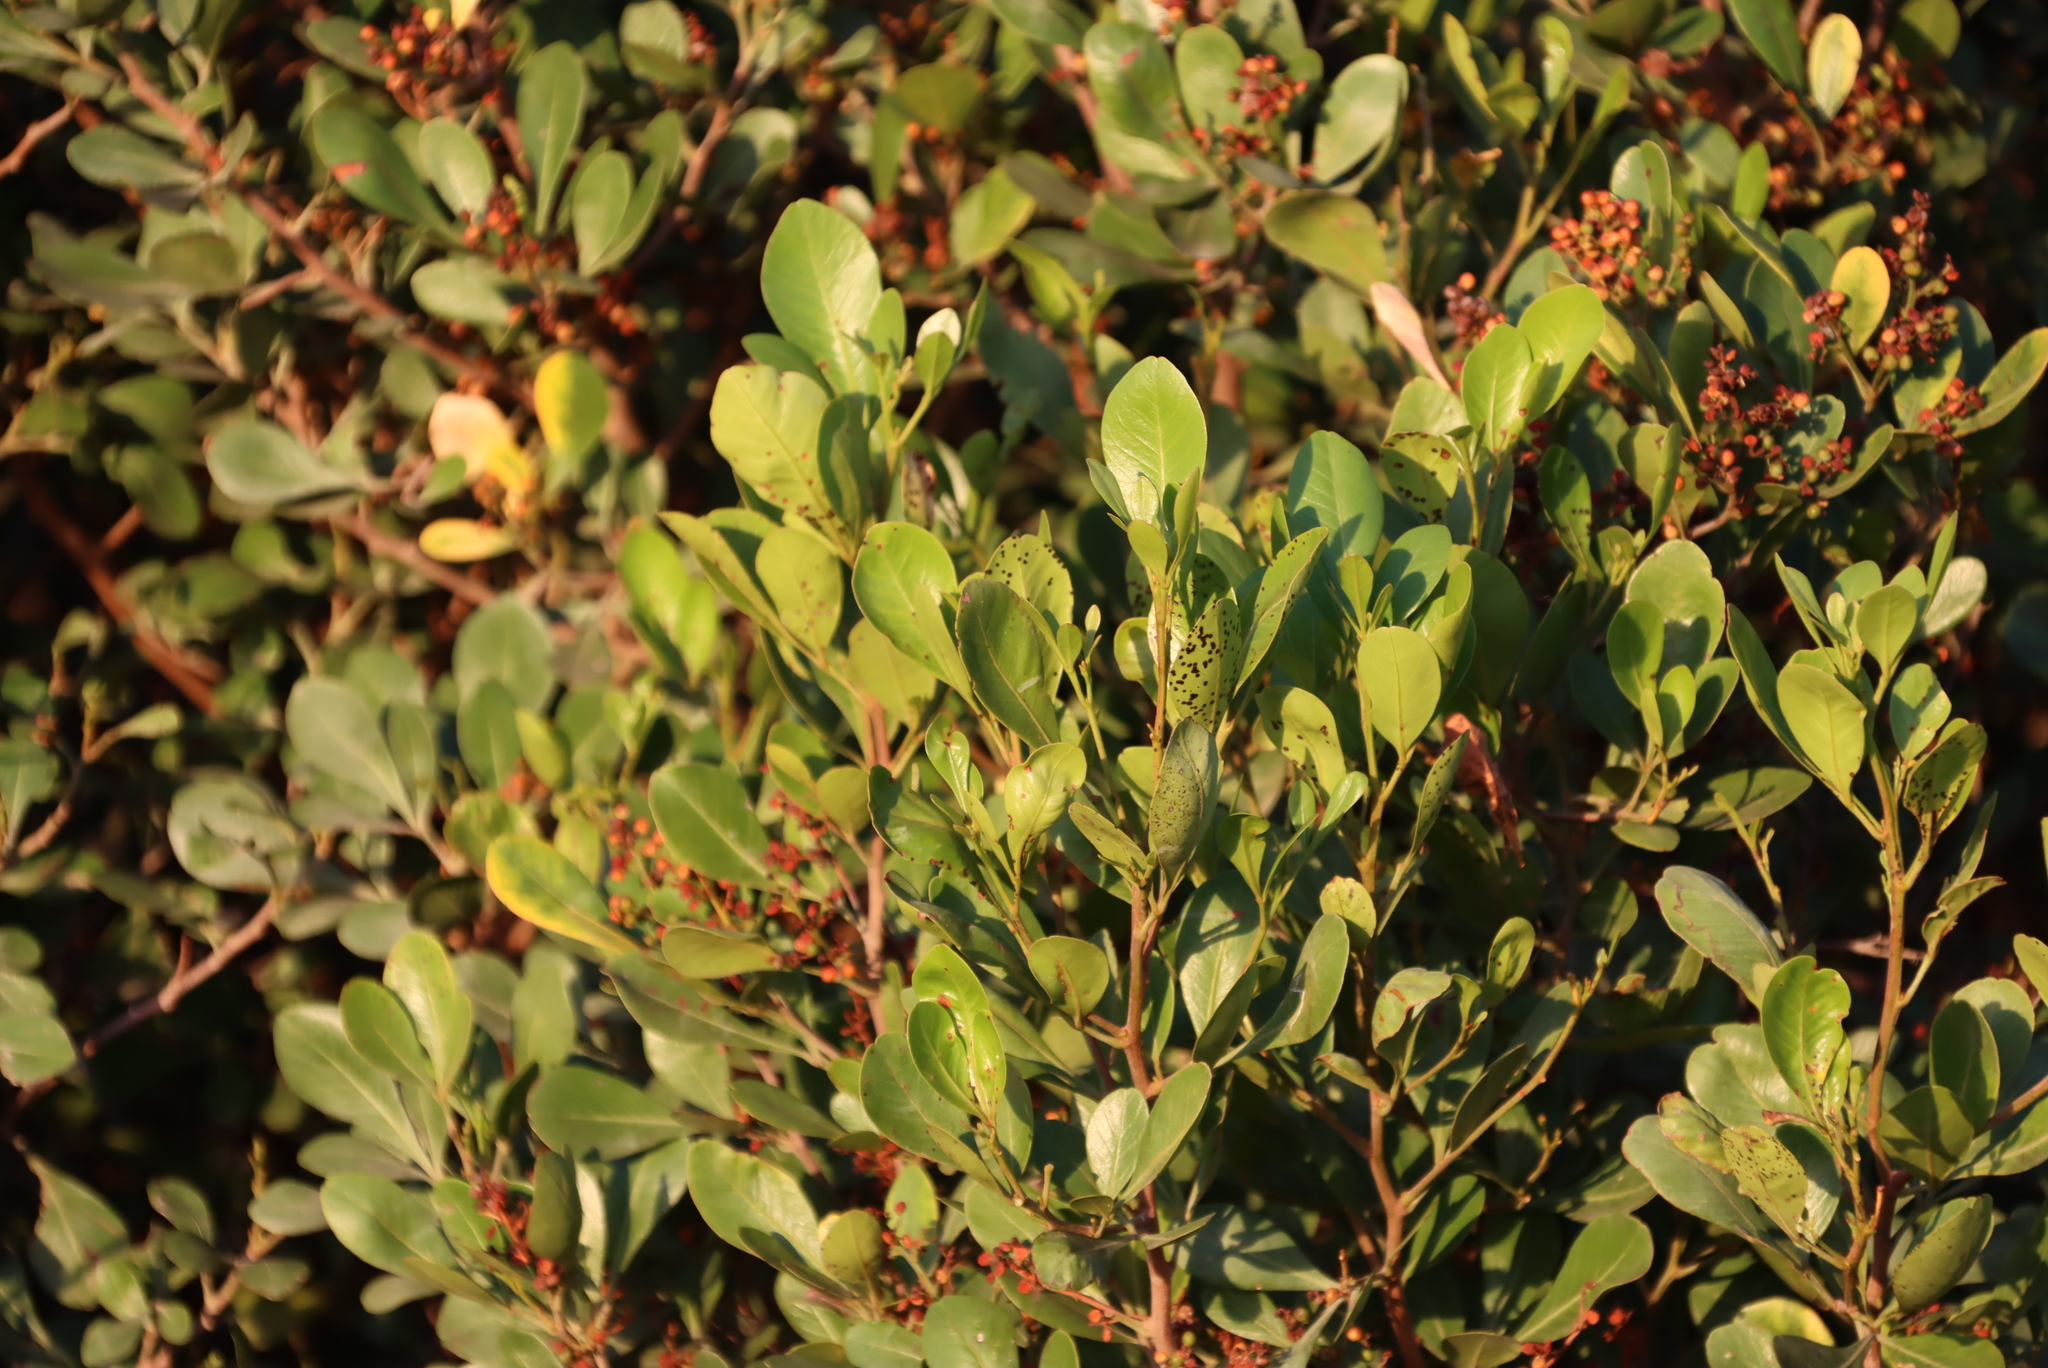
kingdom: Plantae
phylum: Tracheophyta
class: Magnoliopsida
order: Sapindales
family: Anacardiaceae
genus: Searsia
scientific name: Searsia lucida
